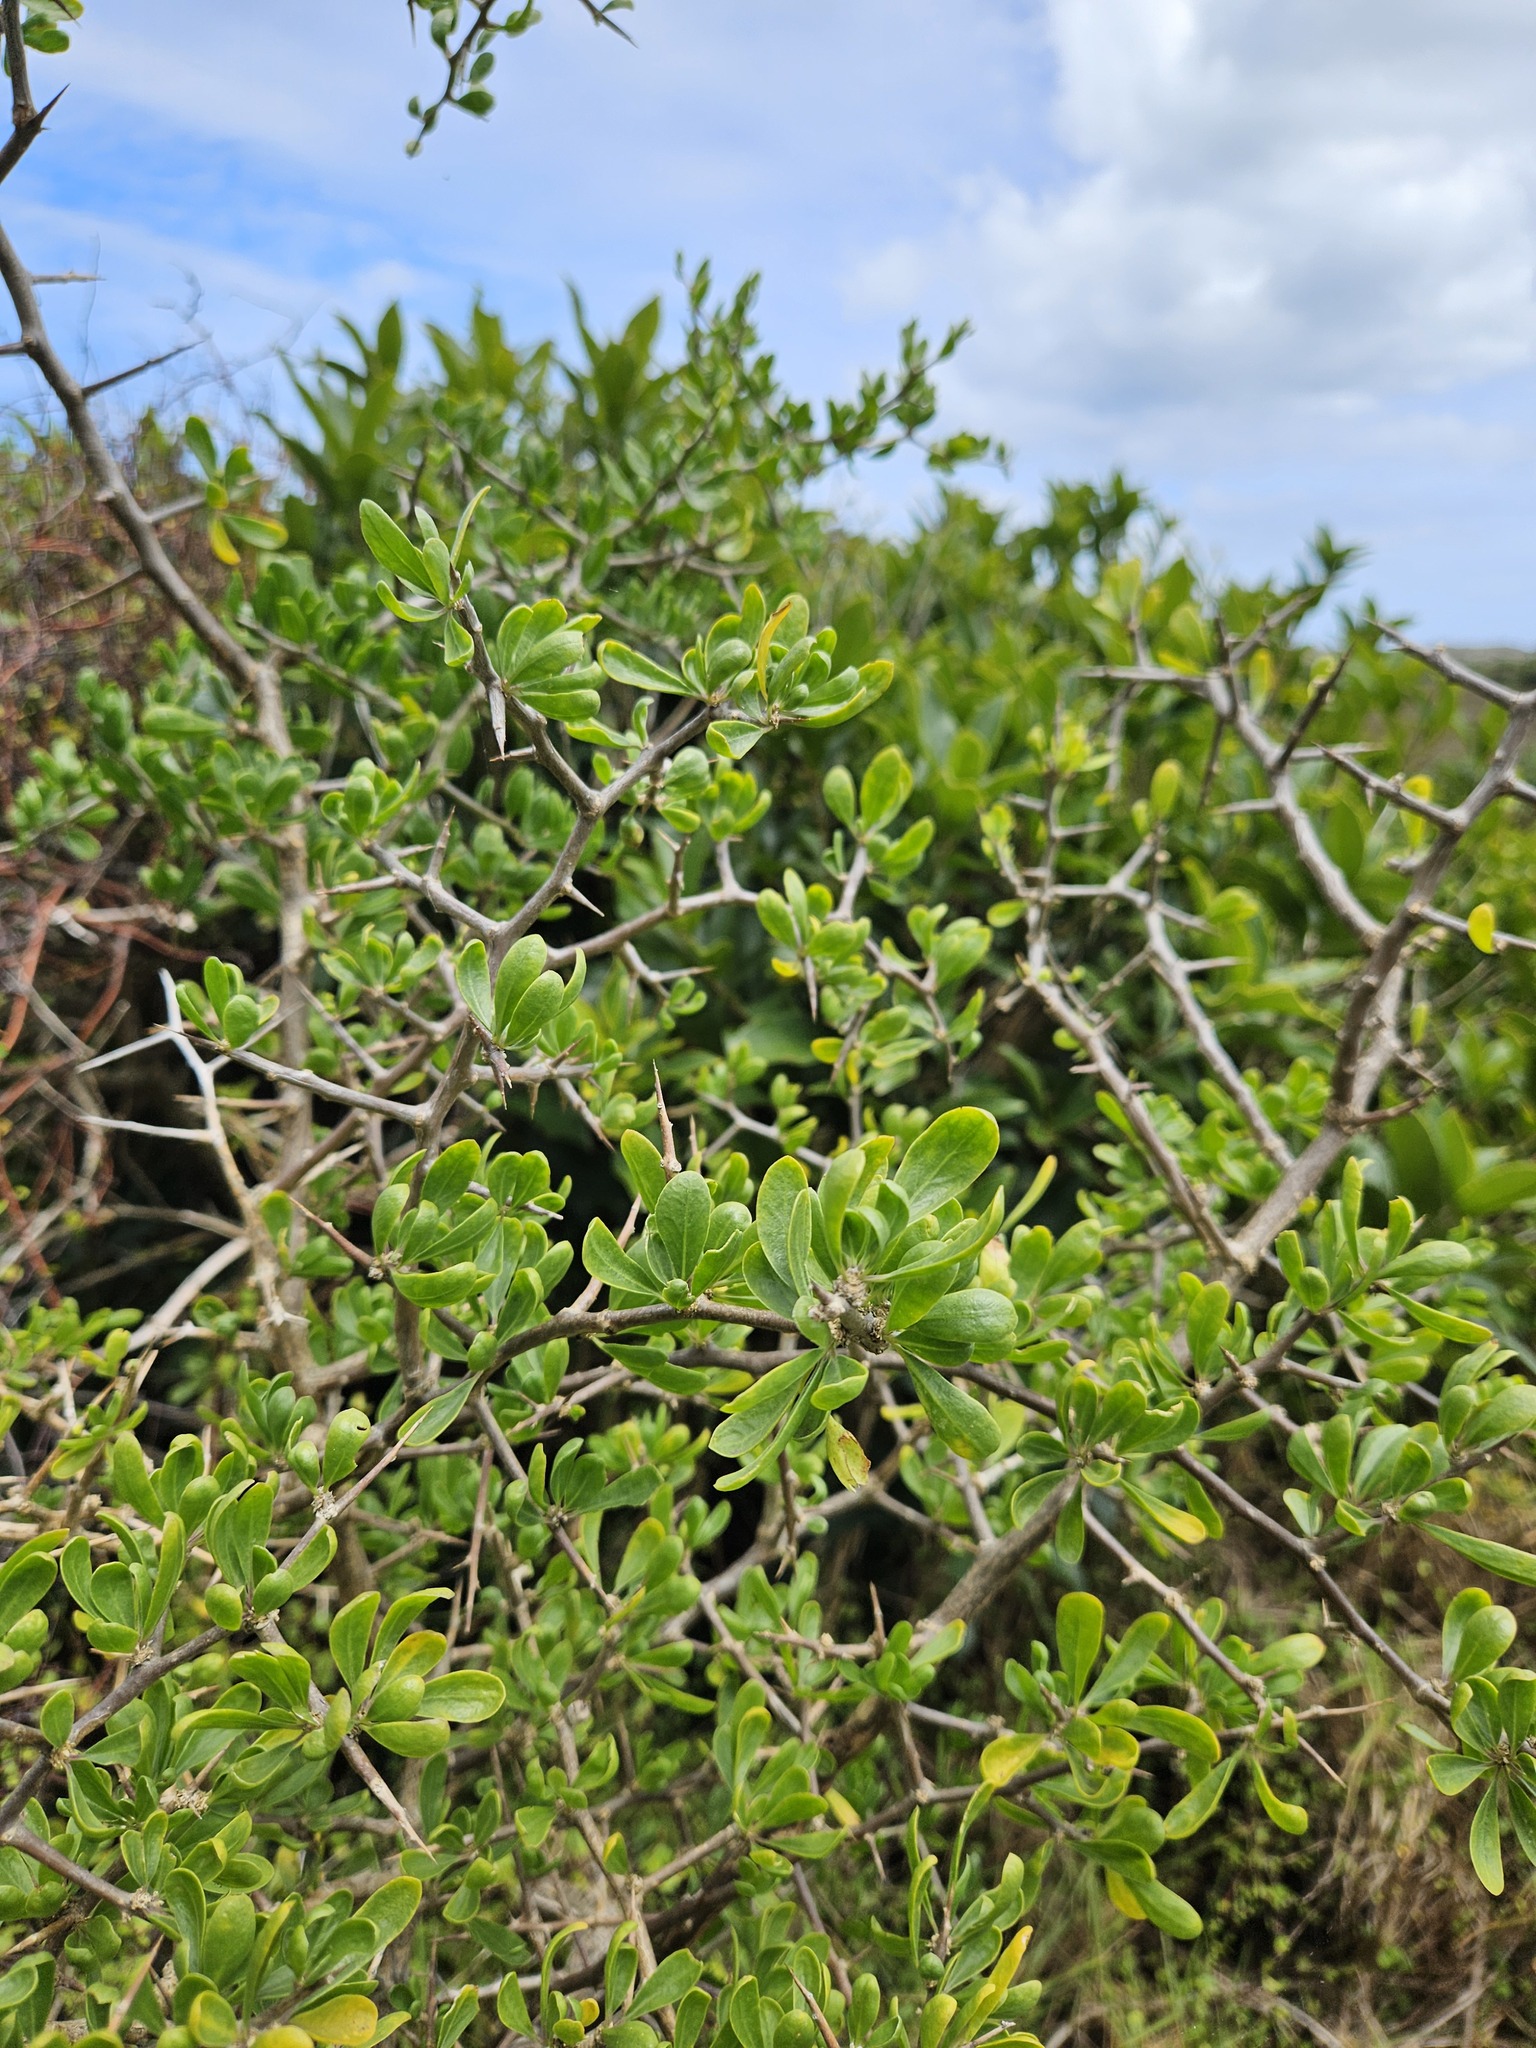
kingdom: Plantae
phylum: Tracheophyta
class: Magnoliopsida
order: Solanales
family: Solanaceae
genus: Lycium
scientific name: Lycium ferocissimum
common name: African boxthorn
